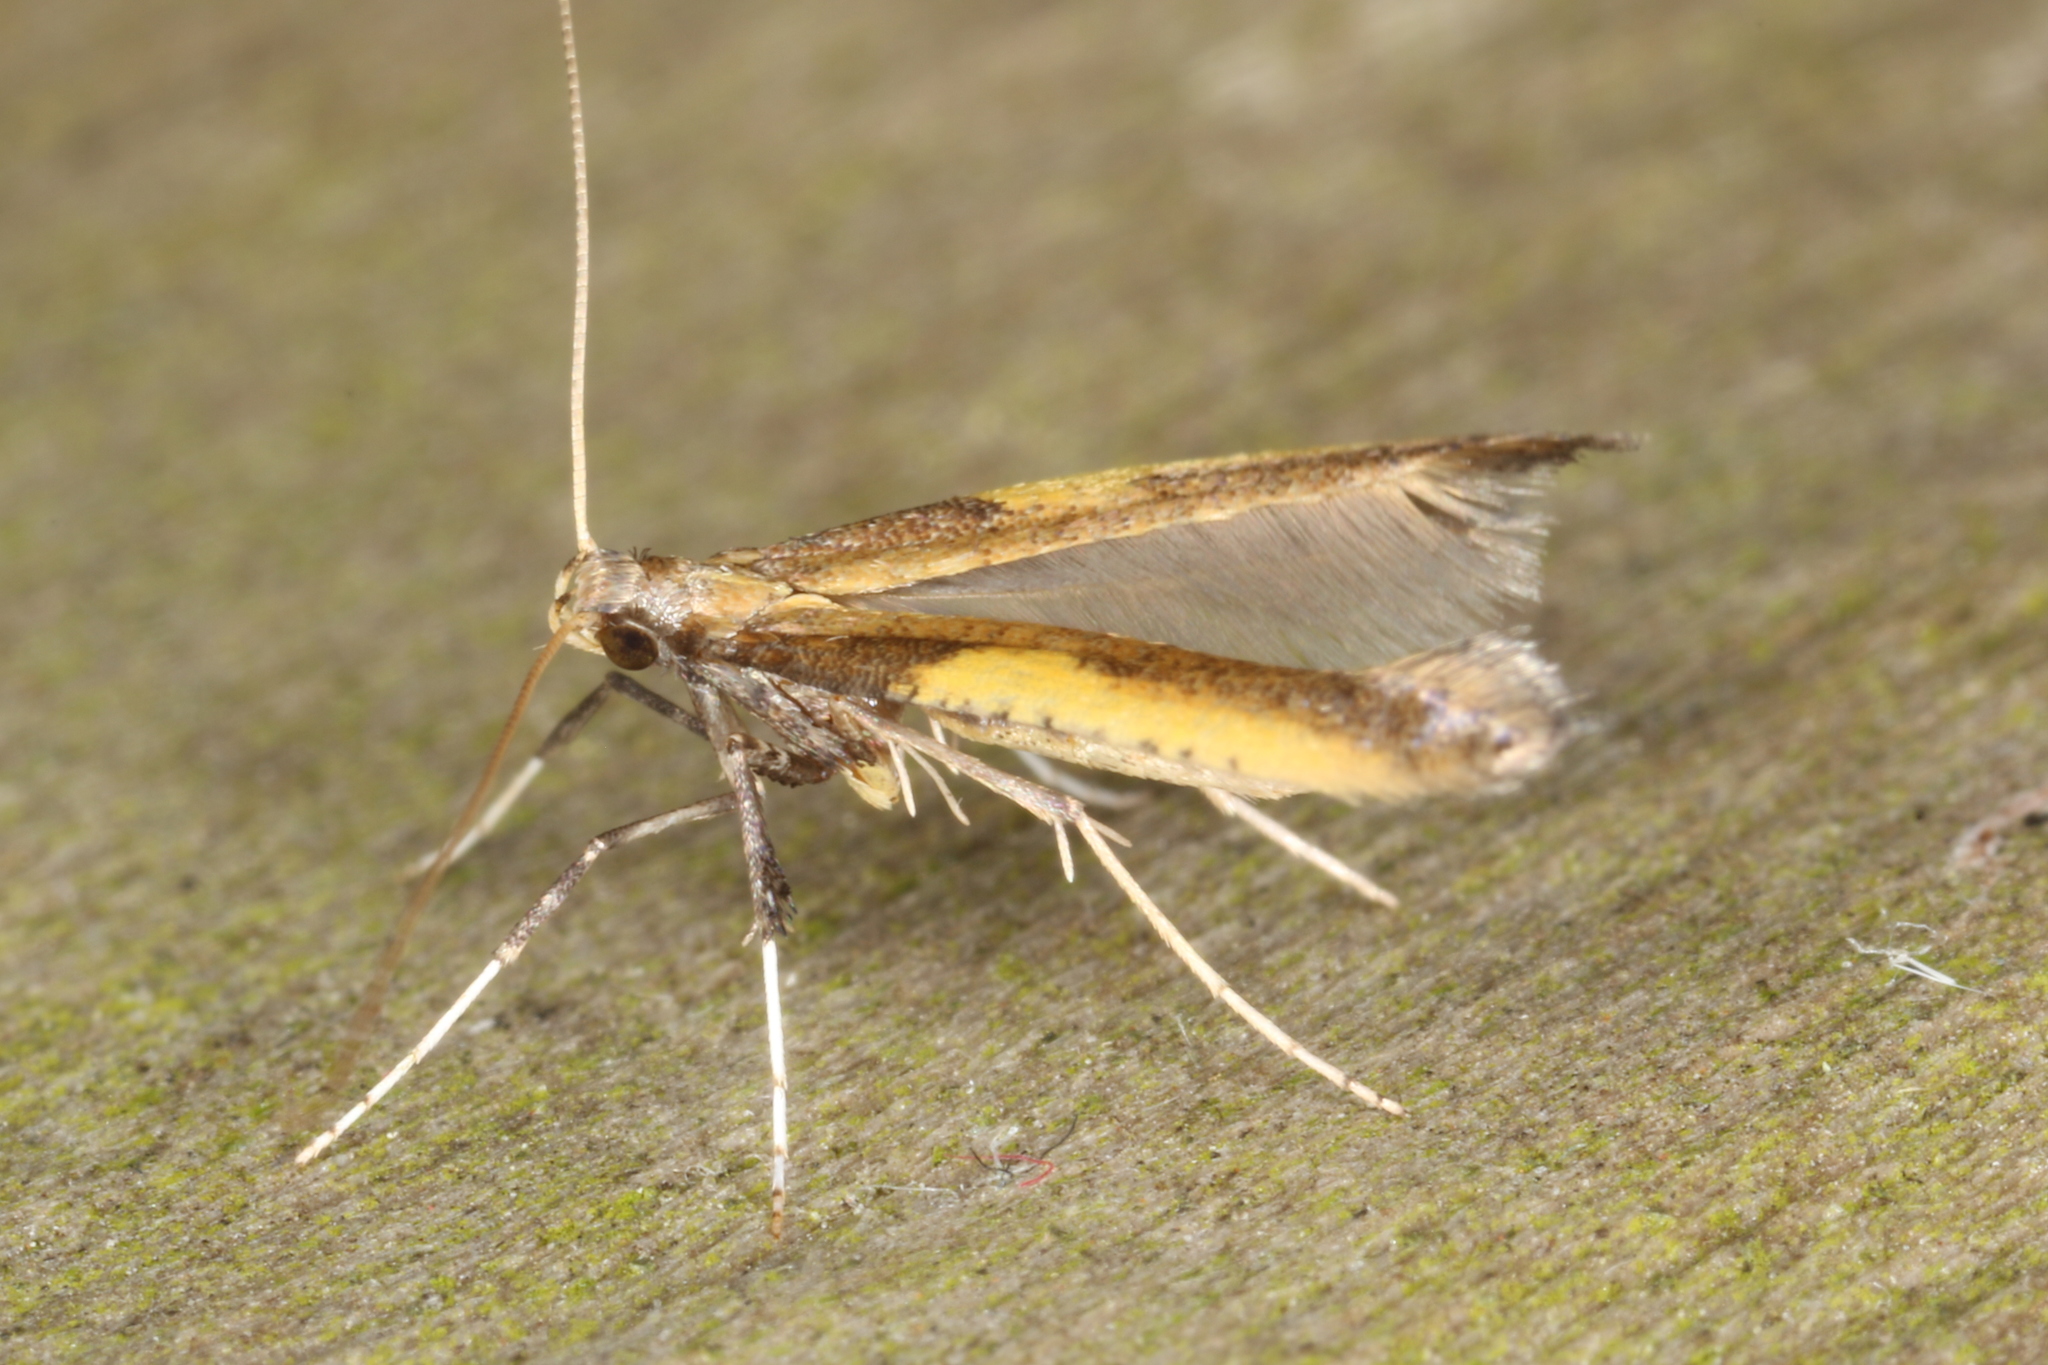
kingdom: Animalia
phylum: Arthropoda
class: Insecta
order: Lepidoptera
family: Gracillariidae
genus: Caloptilia
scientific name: Caloptilia azaleella
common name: Azalea leafminer
